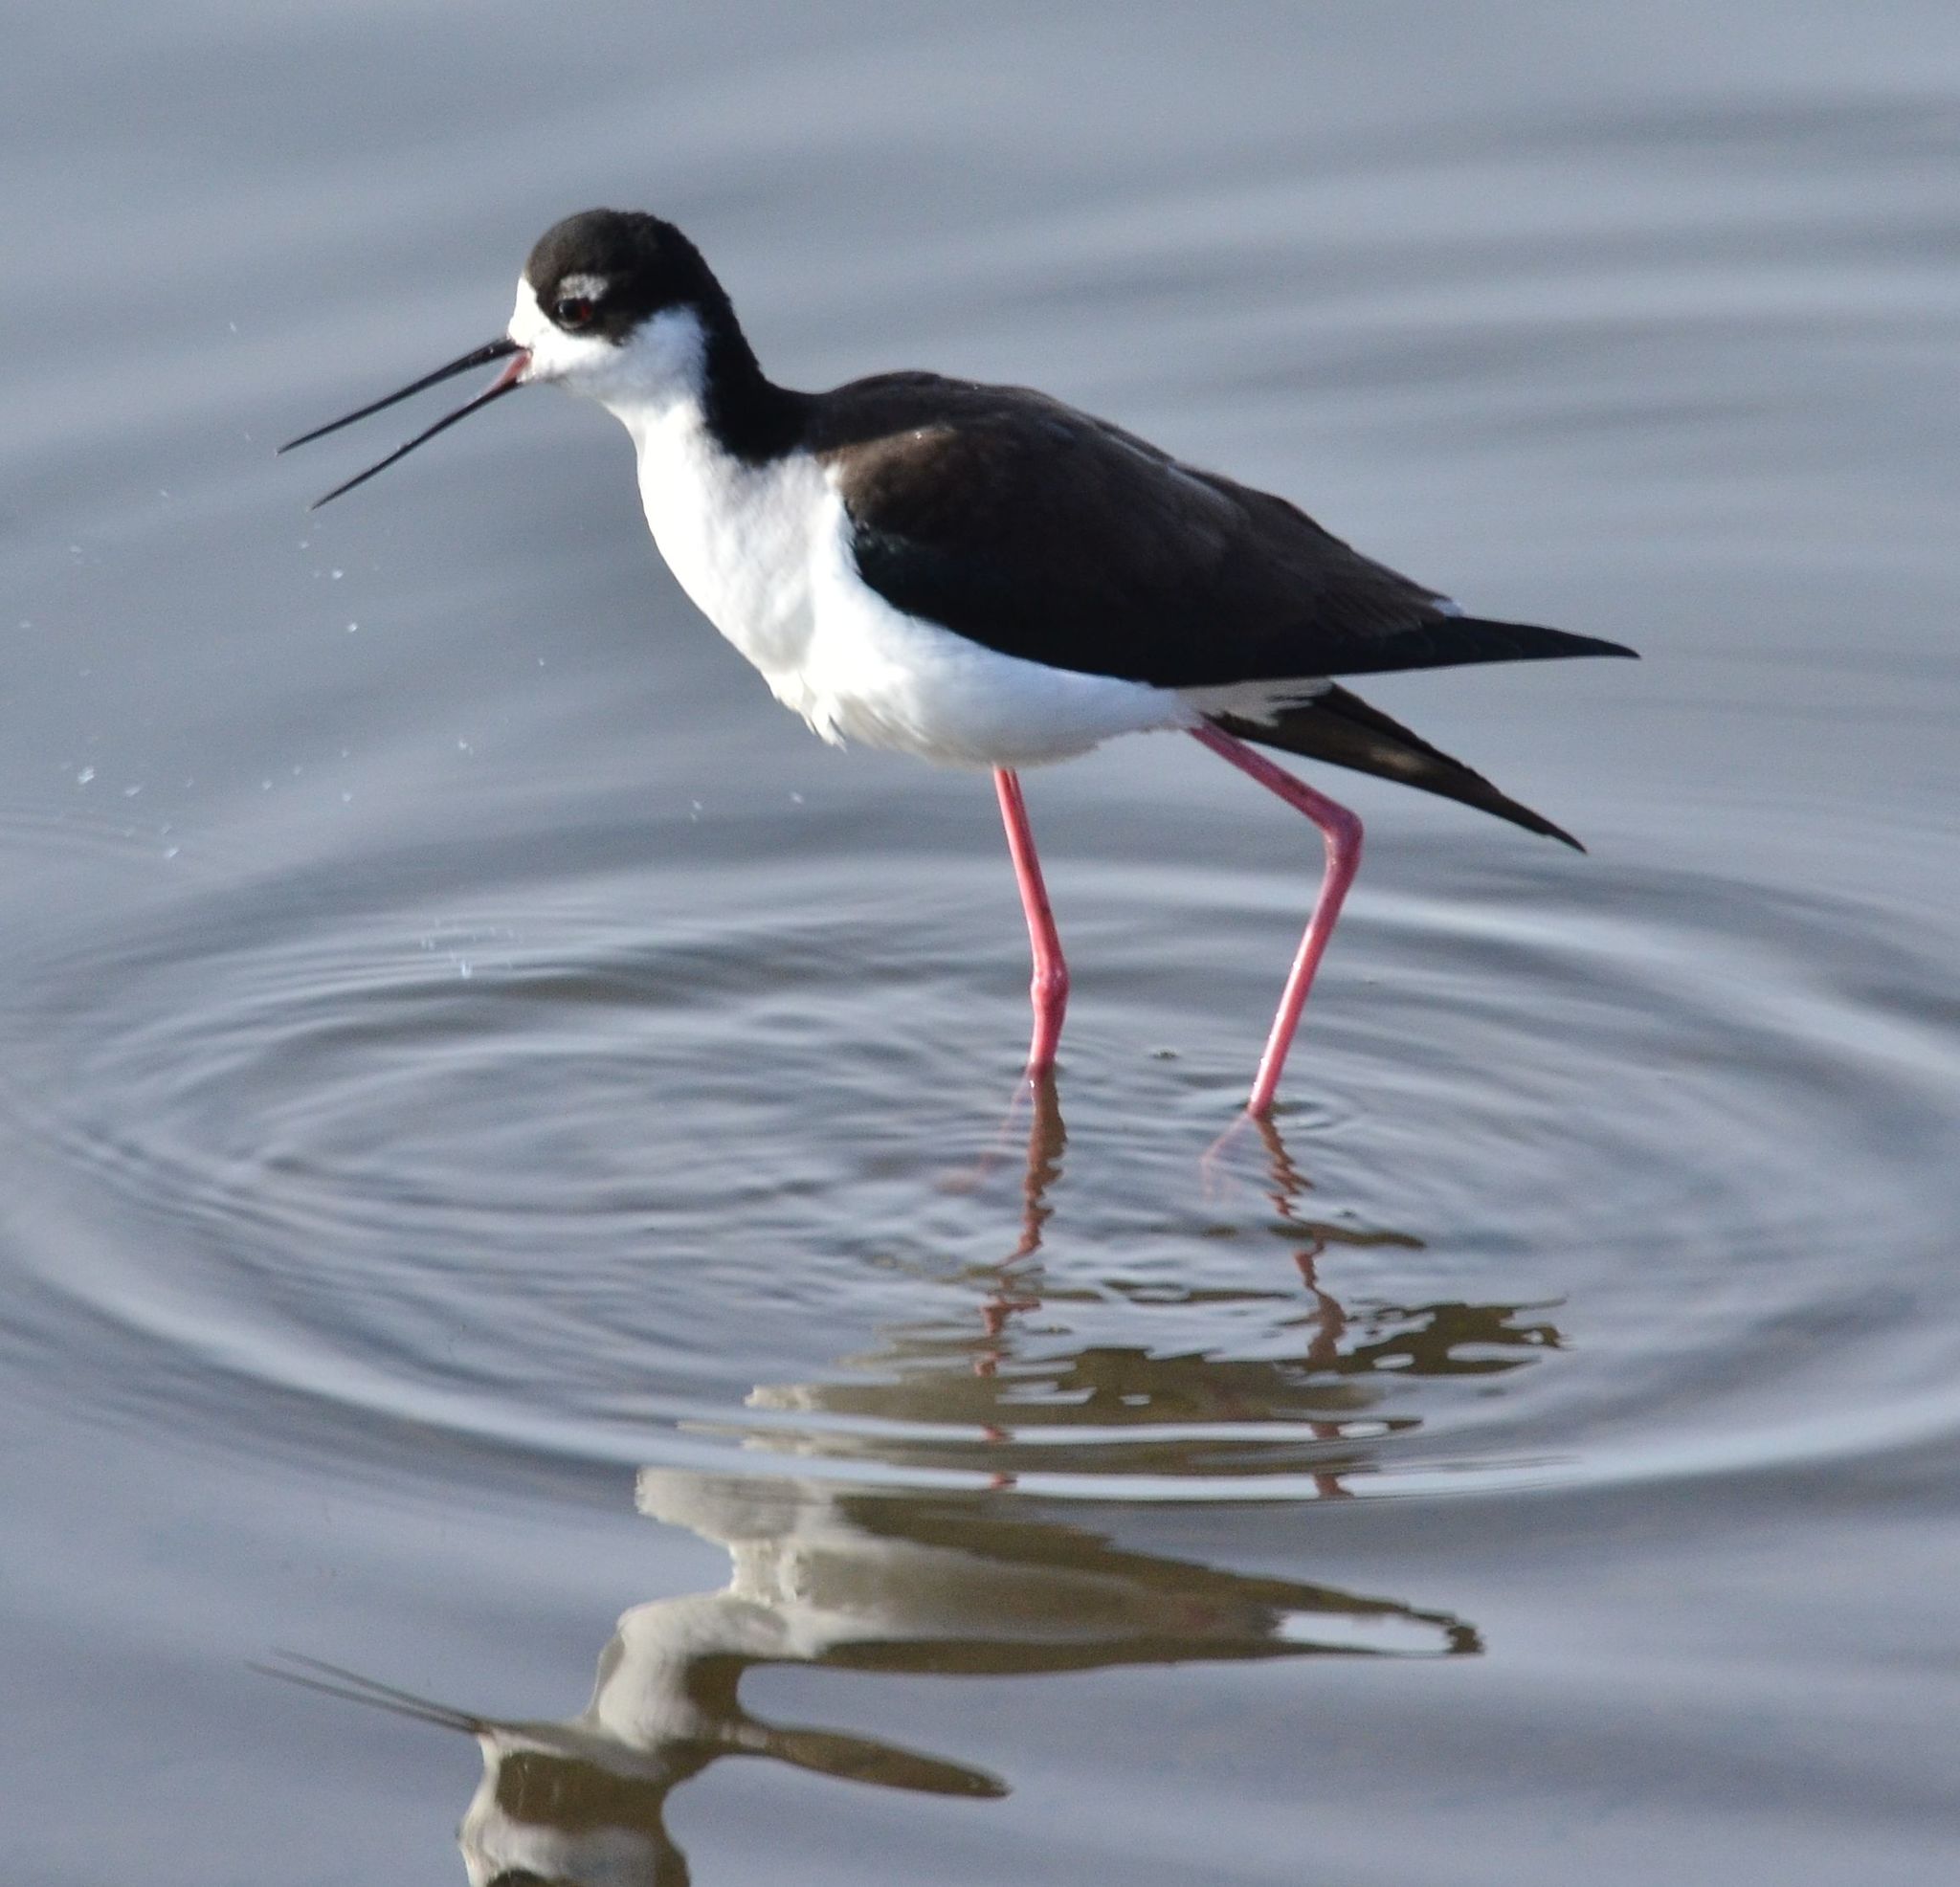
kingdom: Animalia
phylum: Chordata
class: Aves
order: Charadriiformes
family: Recurvirostridae
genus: Himantopus
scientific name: Himantopus mexicanus
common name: Black-necked stilt
